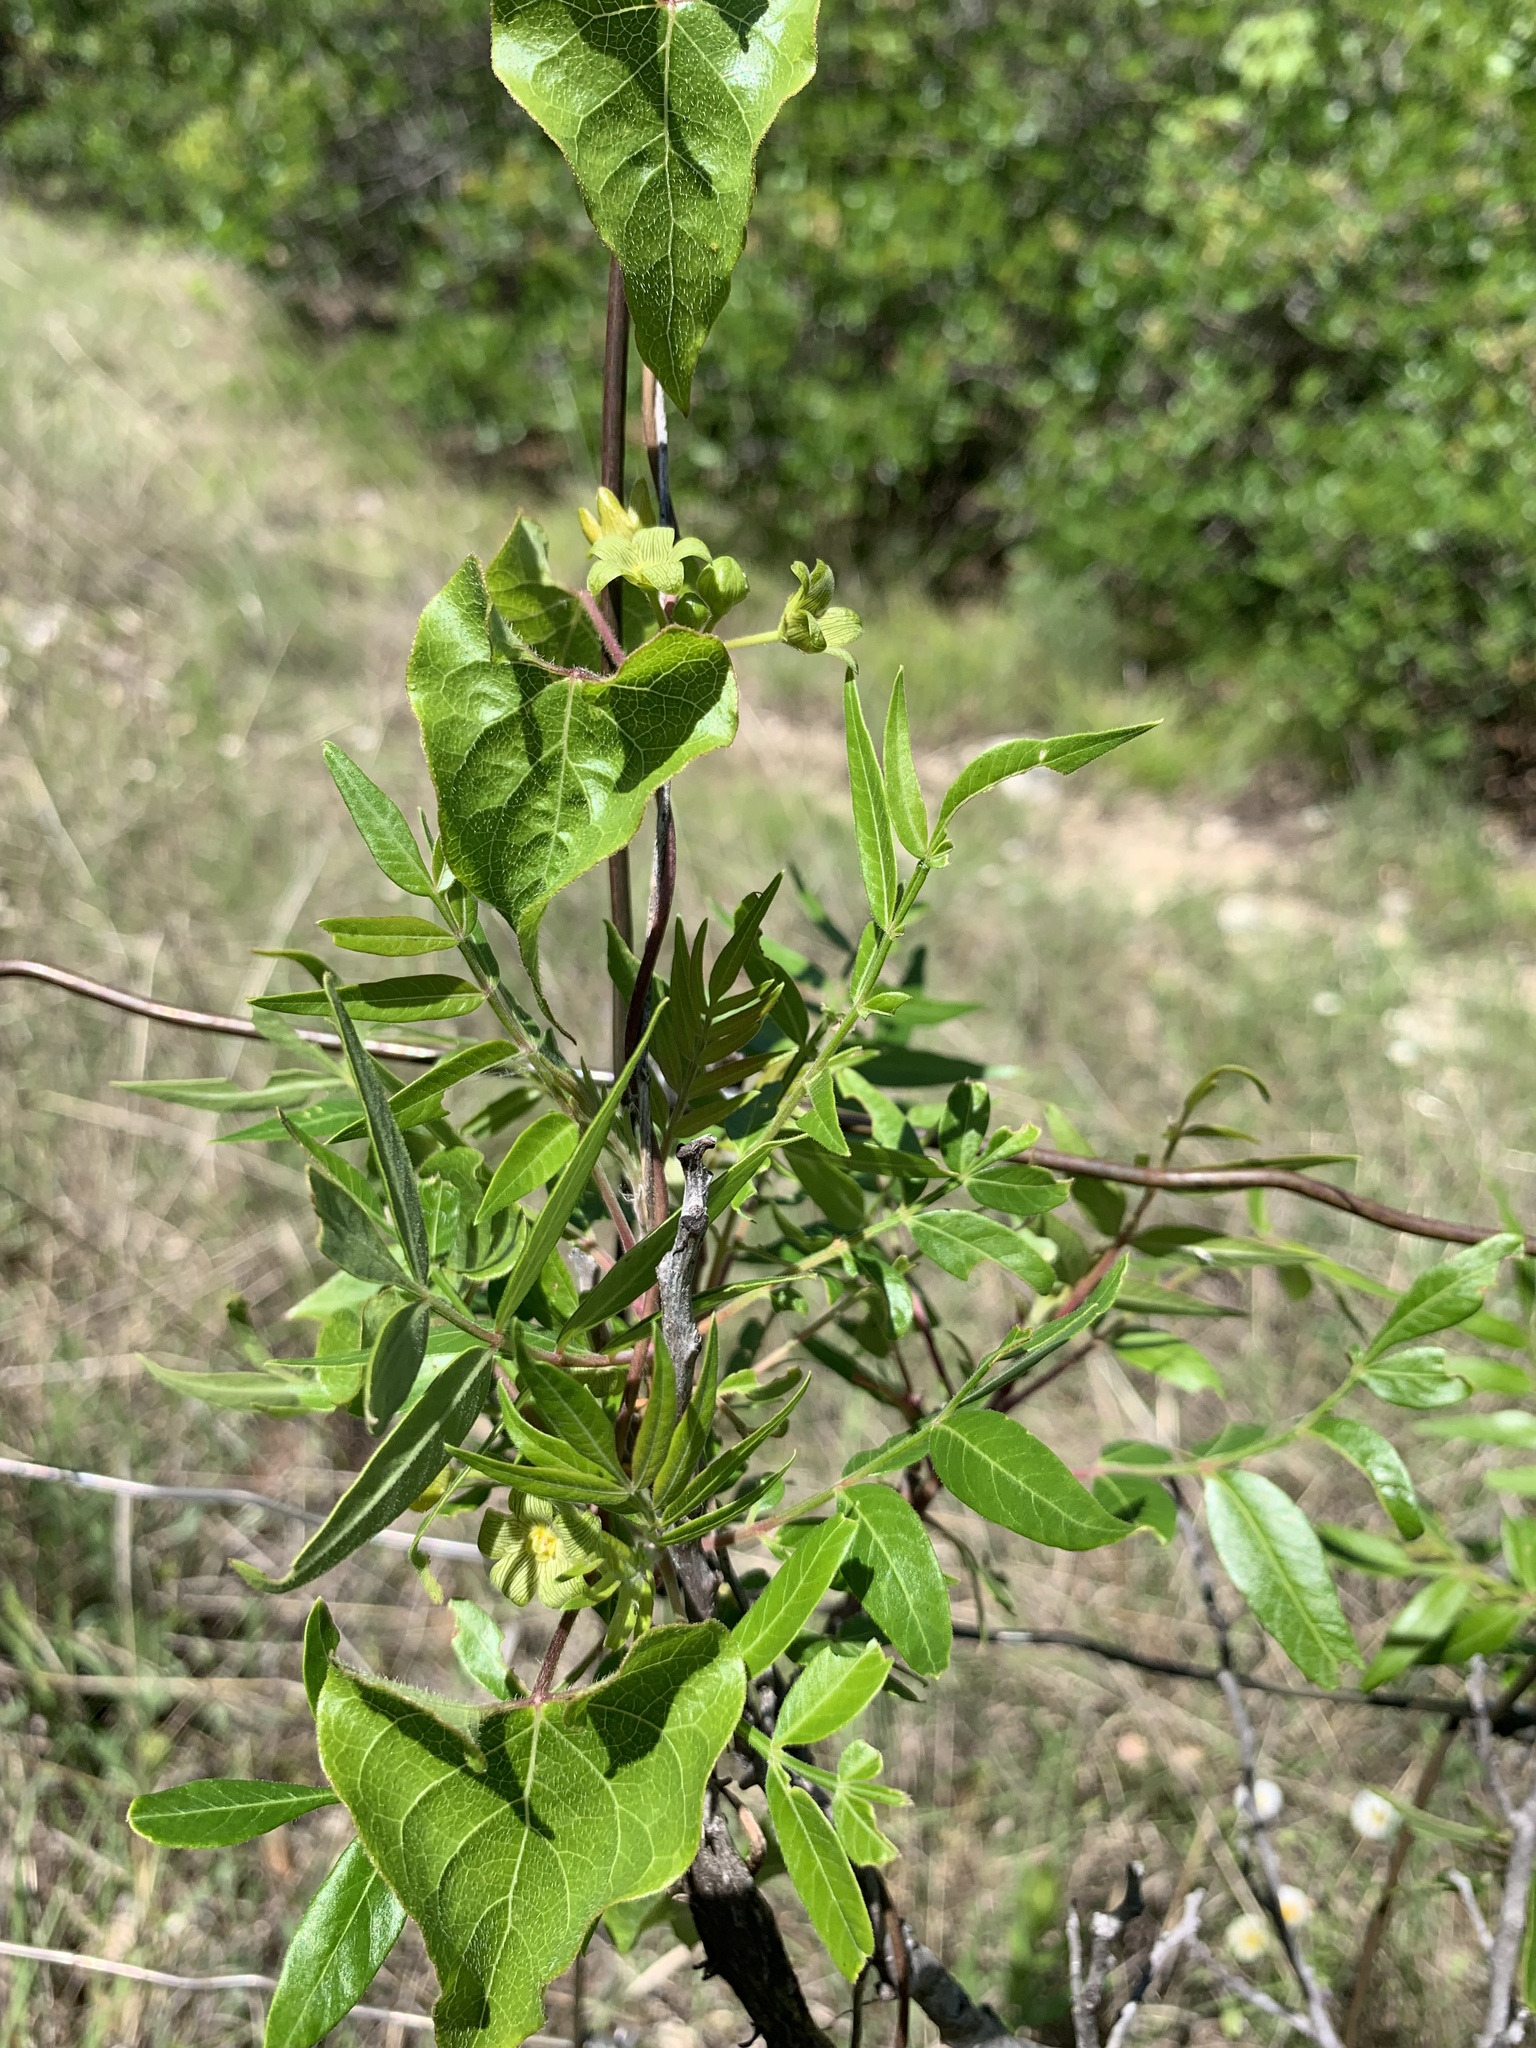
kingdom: Plantae
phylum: Tracheophyta
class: Magnoliopsida
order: Gentianales
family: Apocynaceae
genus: Matelea
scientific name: Matelea edwardsensis
